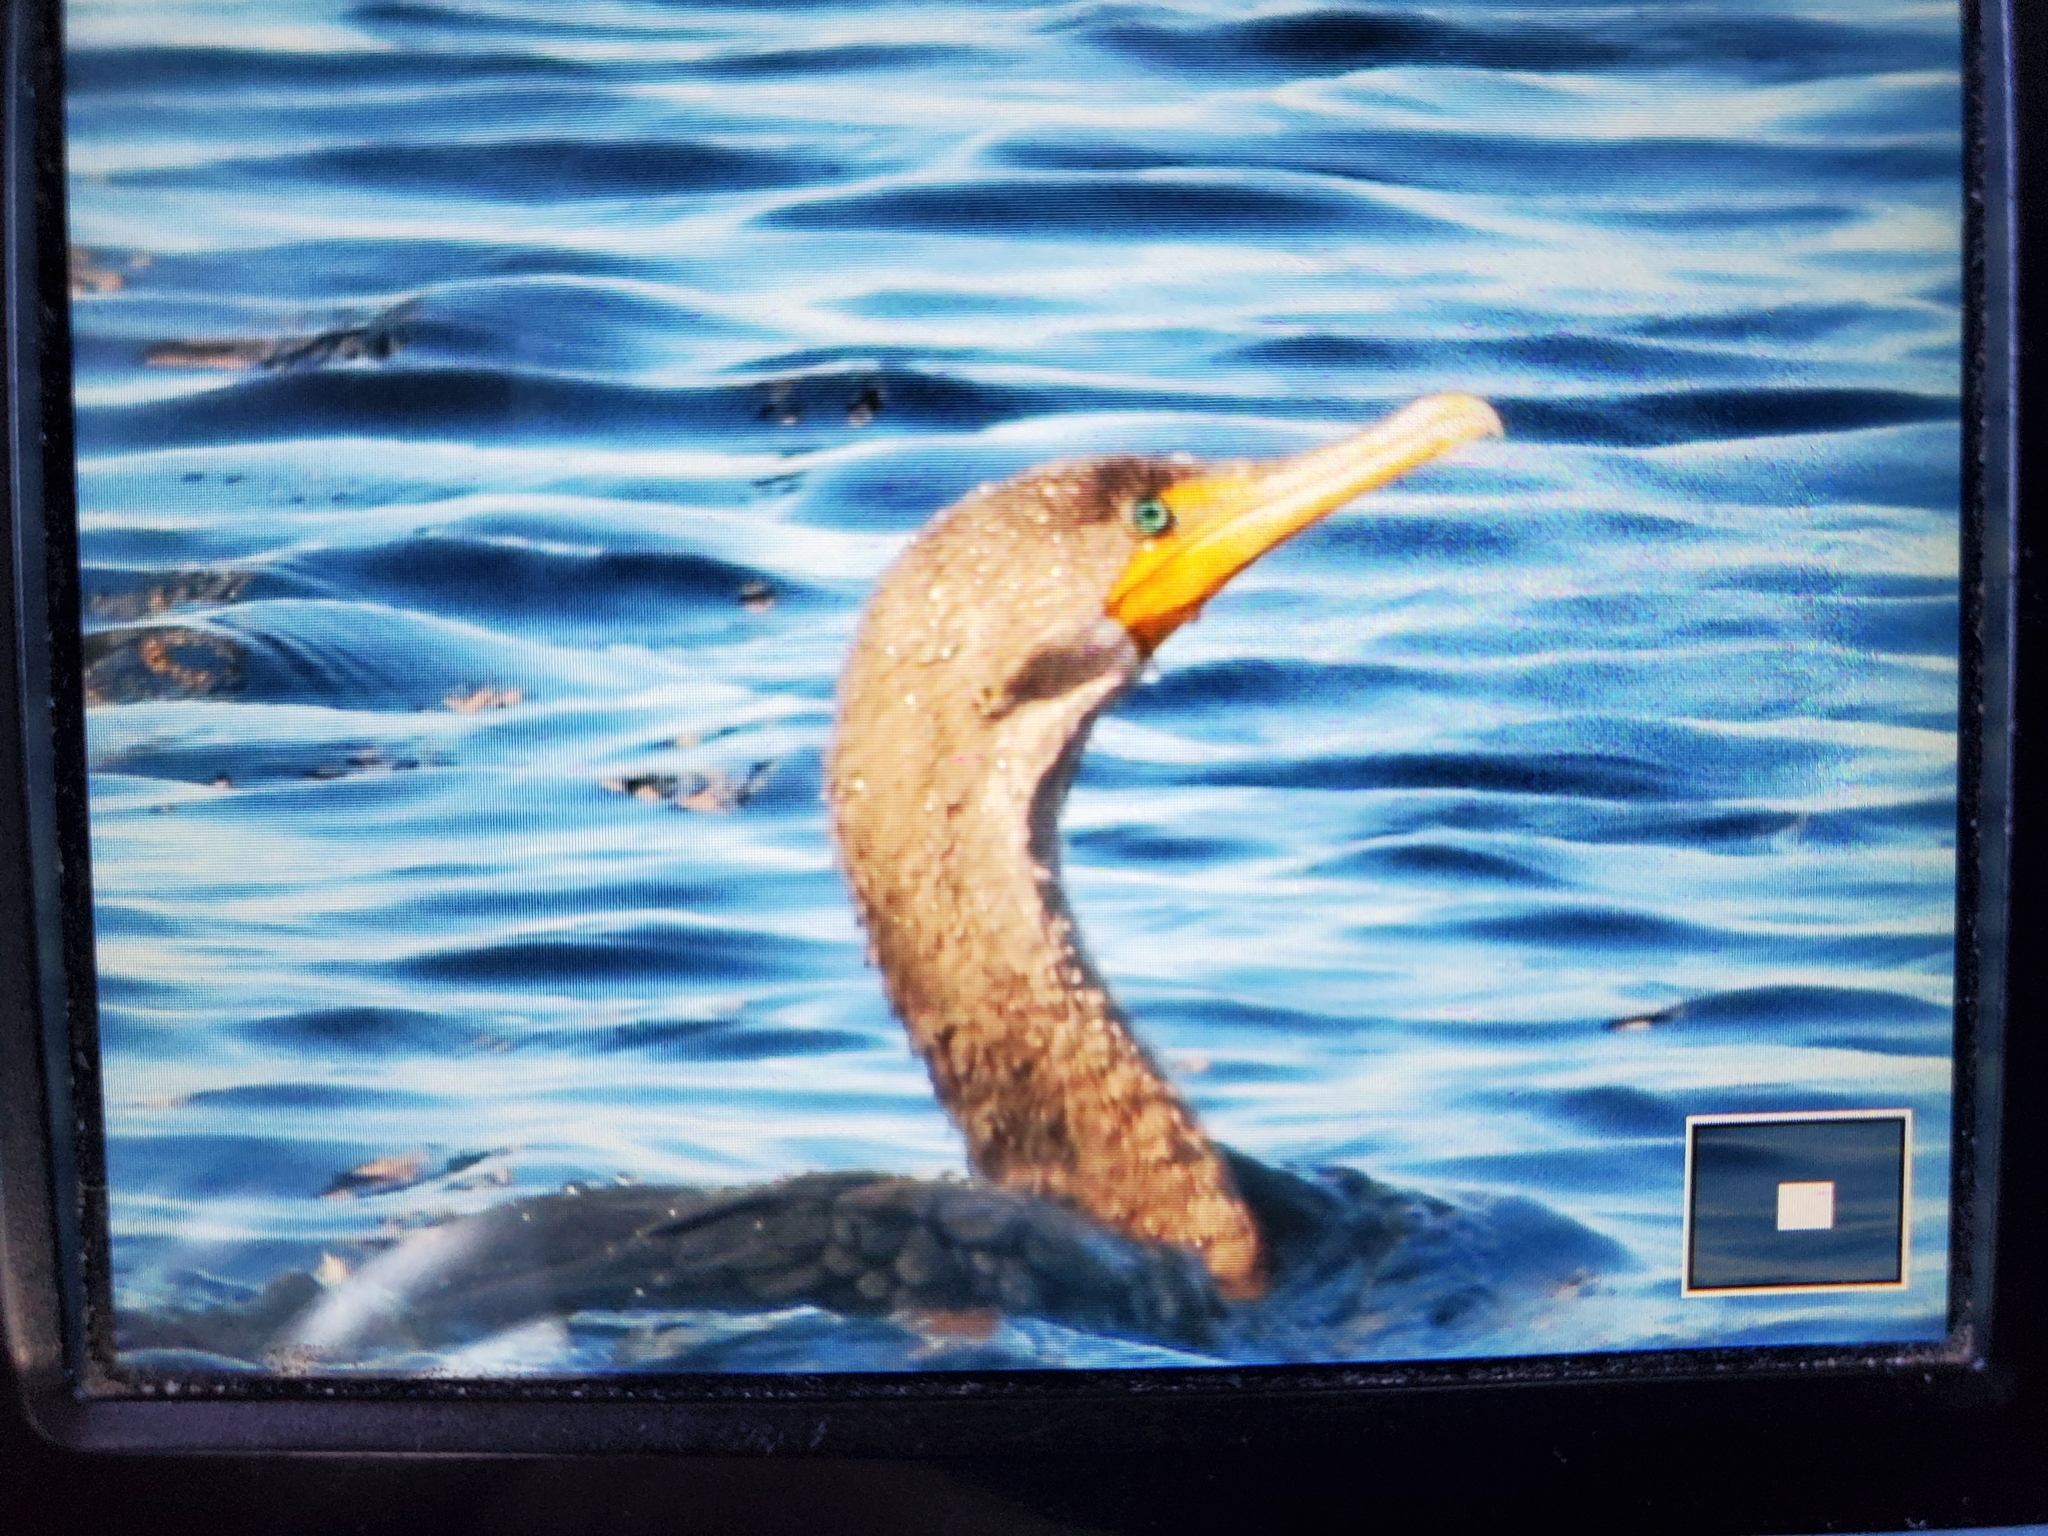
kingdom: Animalia
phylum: Chordata
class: Aves
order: Suliformes
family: Phalacrocoracidae
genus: Phalacrocorax
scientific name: Phalacrocorax auritus
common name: Double-crested cormorant
